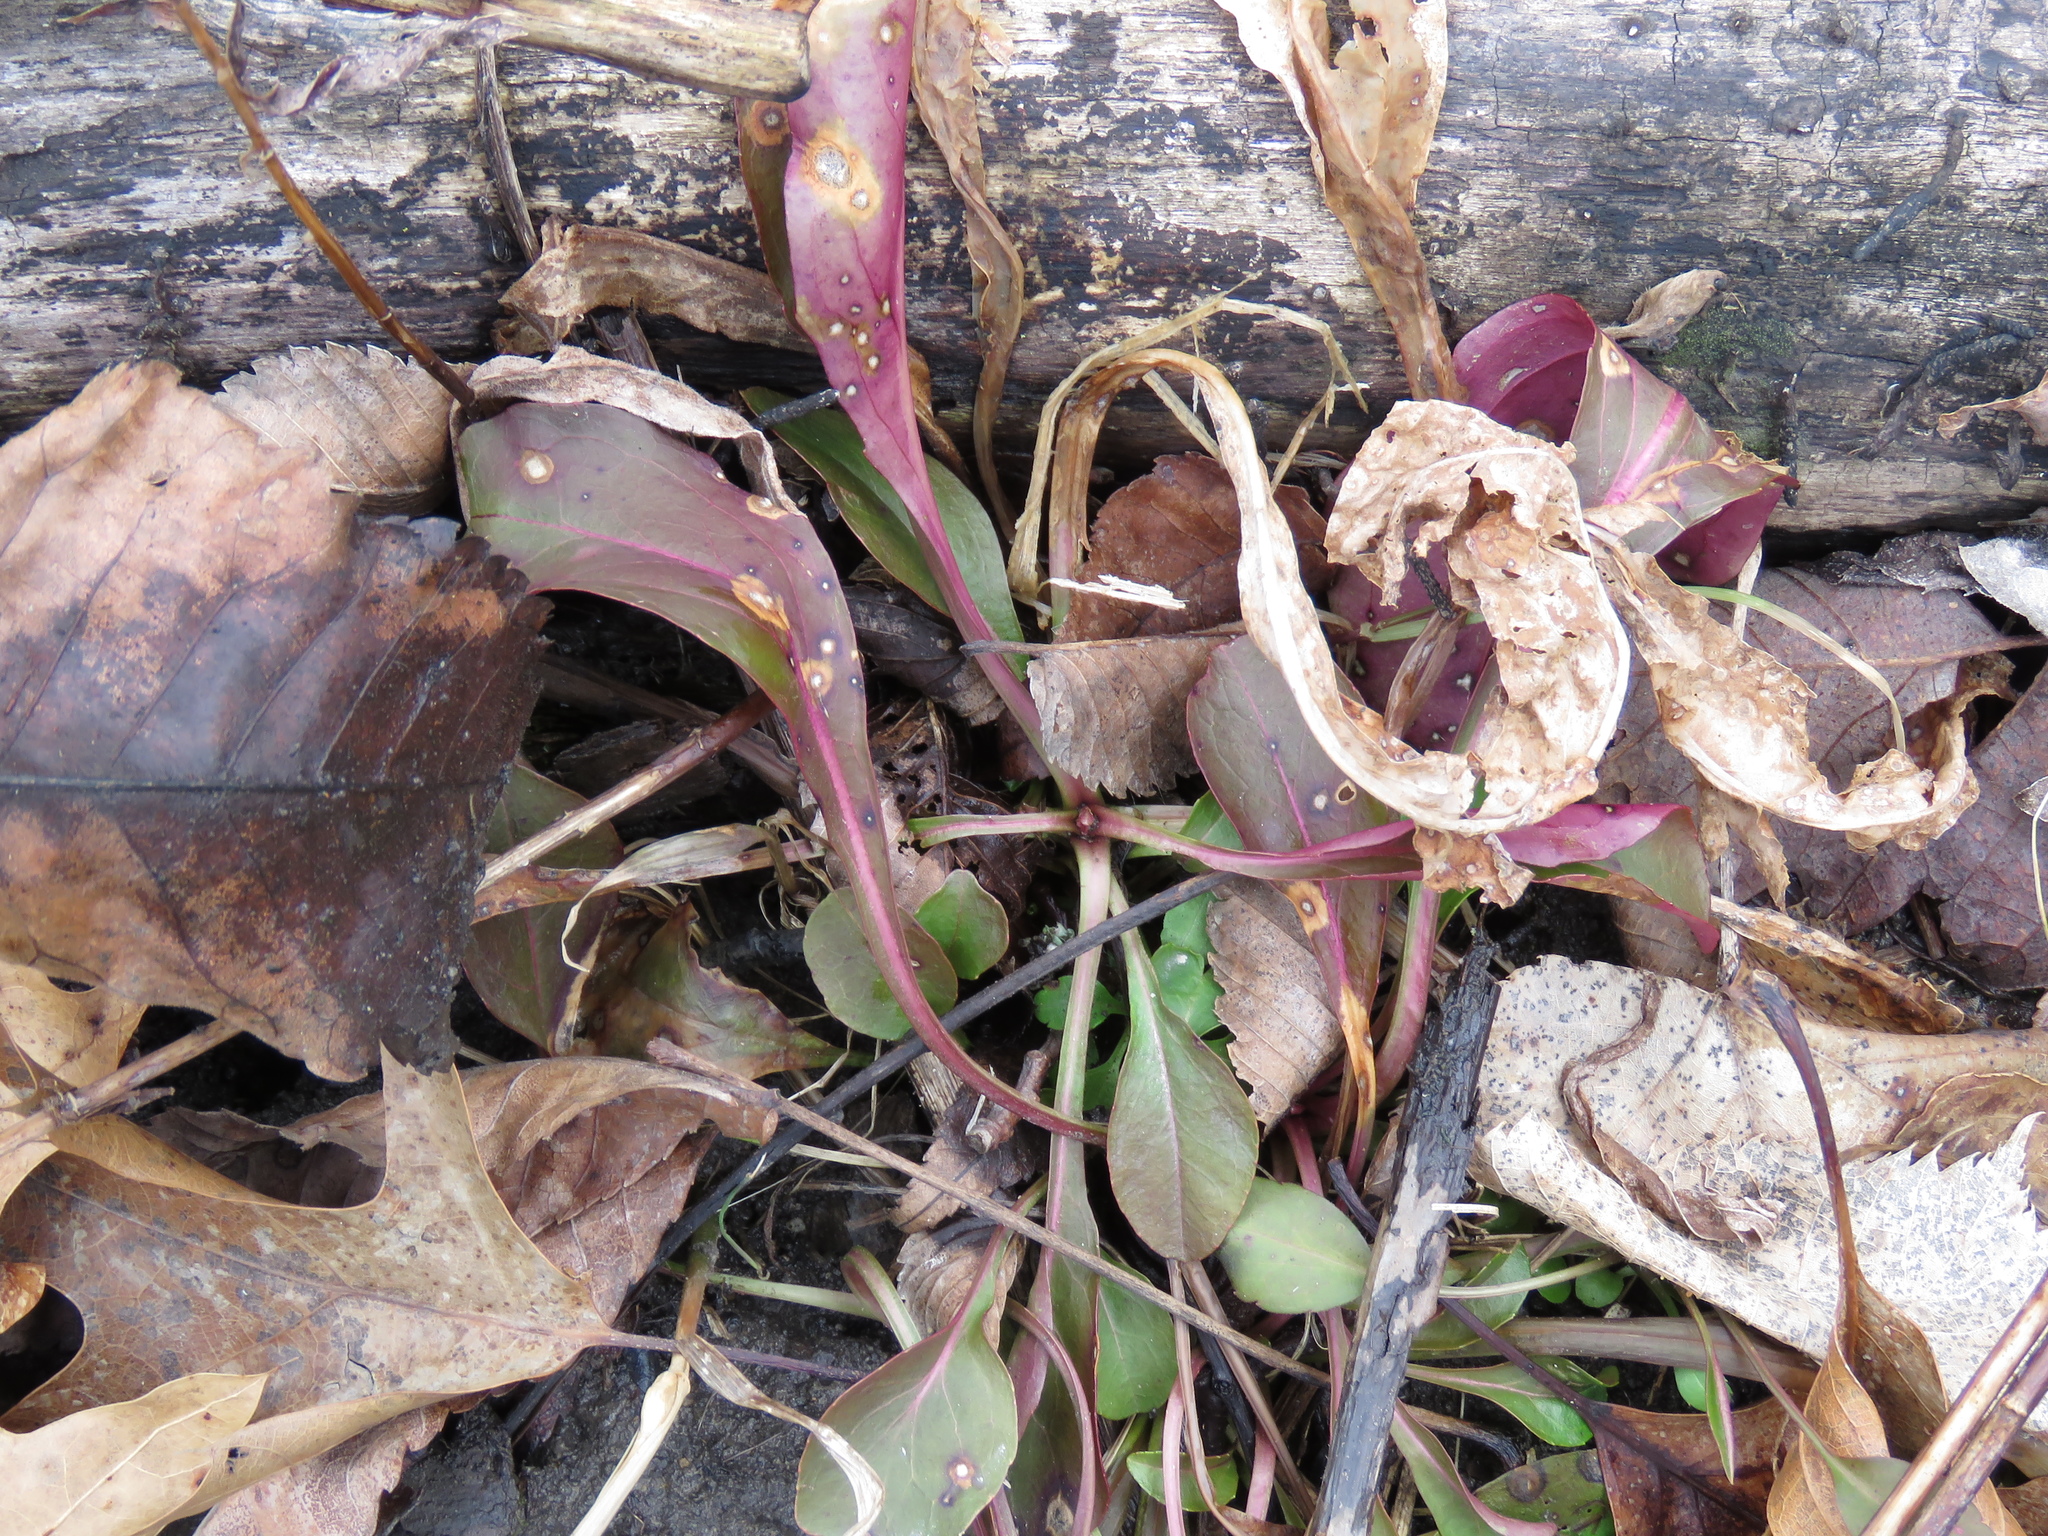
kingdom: Plantae
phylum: Tracheophyta
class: Magnoliopsida
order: Lamiales
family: Plantaginaceae
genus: Penstemon
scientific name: Penstemon digitalis
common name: Foxglove beardtongue
